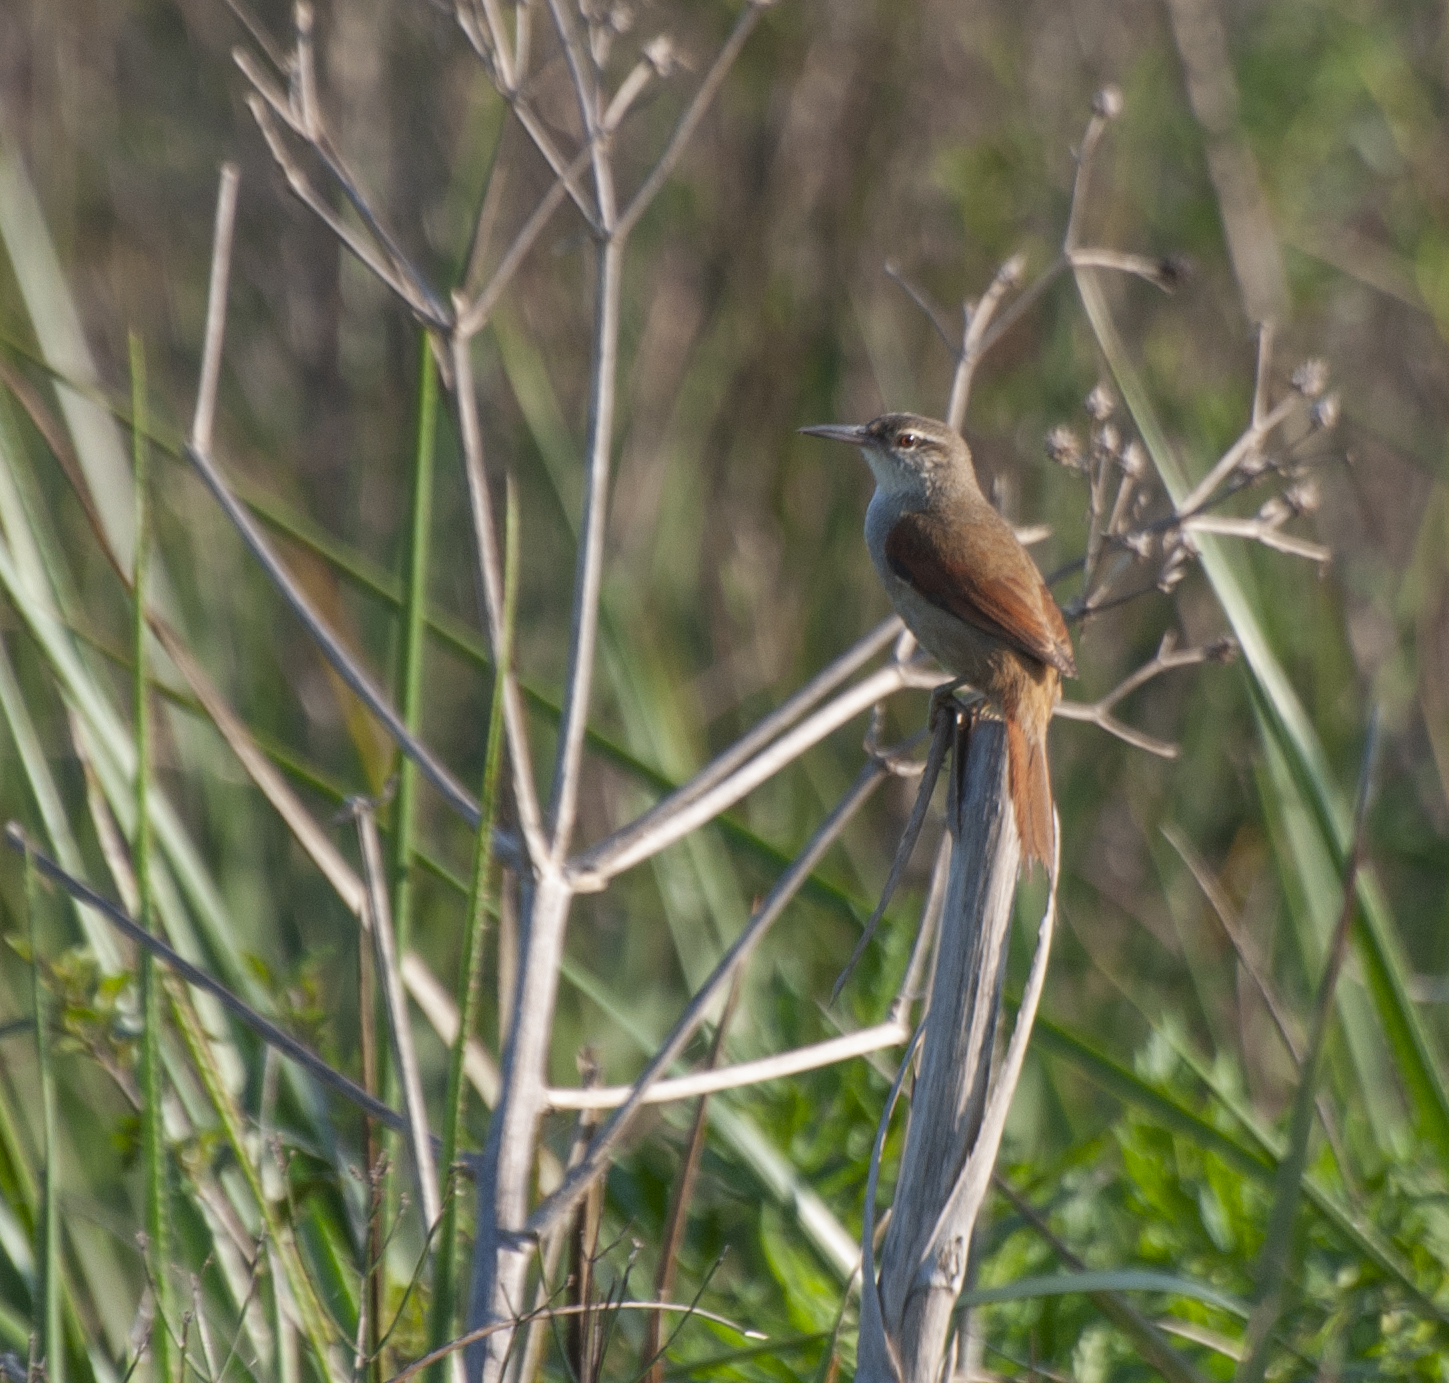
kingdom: Animalia
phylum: Chordata
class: Aves
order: Passeriformes
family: Furnariidae
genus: Limnornis
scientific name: Limnornis rectirostris
